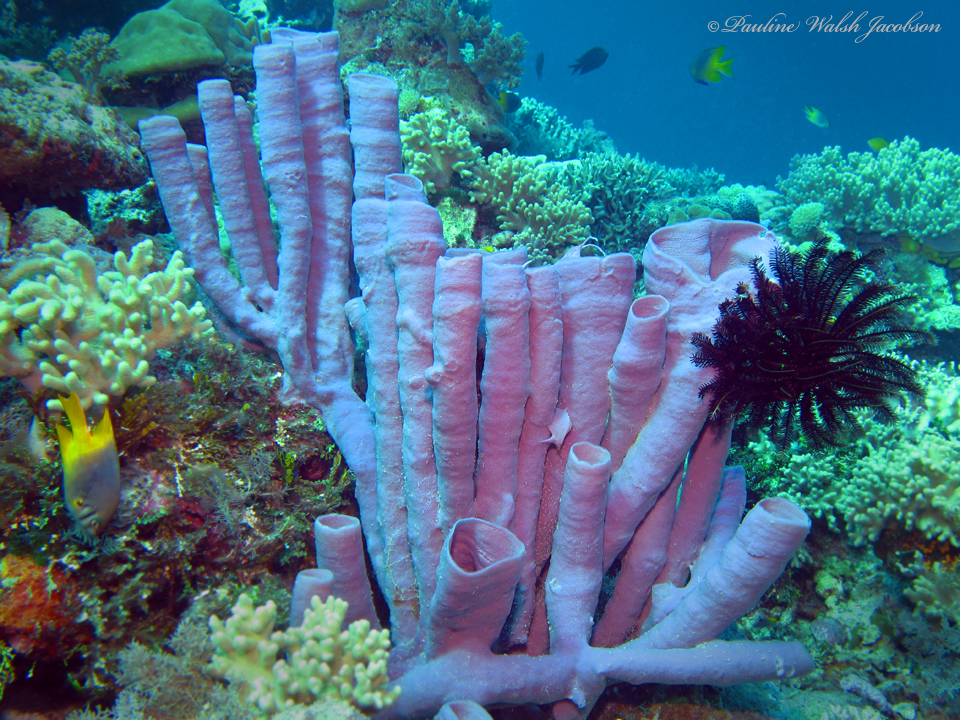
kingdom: Animalia
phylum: Porifera
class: Demospongiae
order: Haplosclerida
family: Chalinidae
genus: Haliclona
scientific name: Haliclona fascigera
